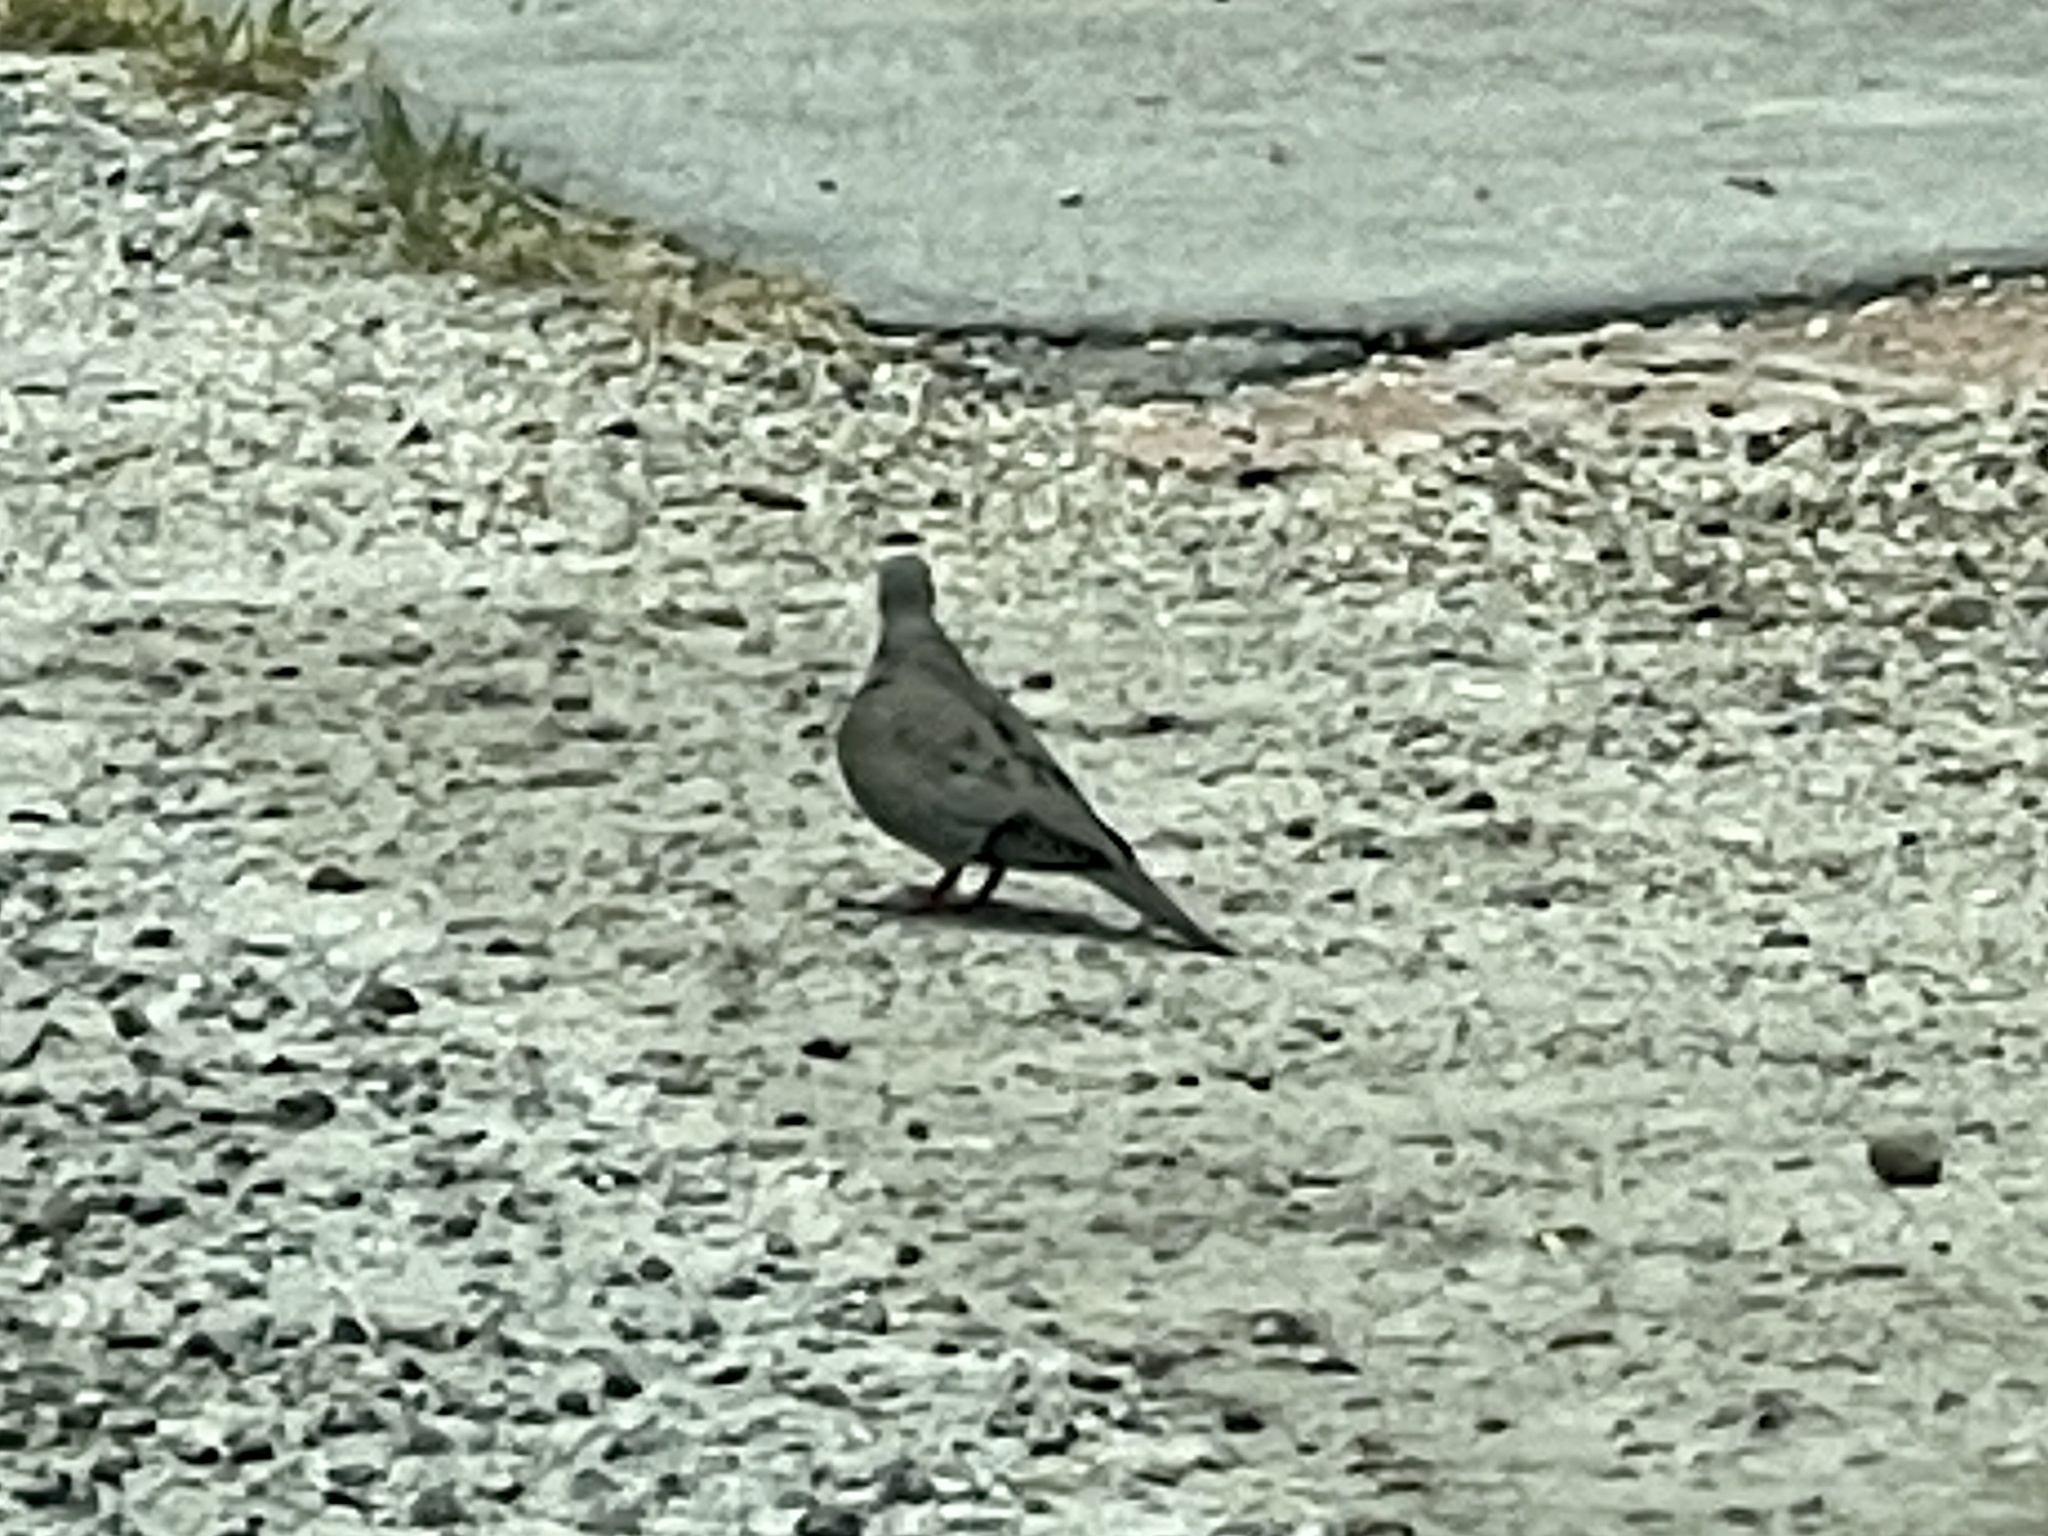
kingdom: Animalia
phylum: Chordata
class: Aves
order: Columbiformes
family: Columbidae
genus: Zenaida
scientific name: Zenaida macroura
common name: Mourning dove
